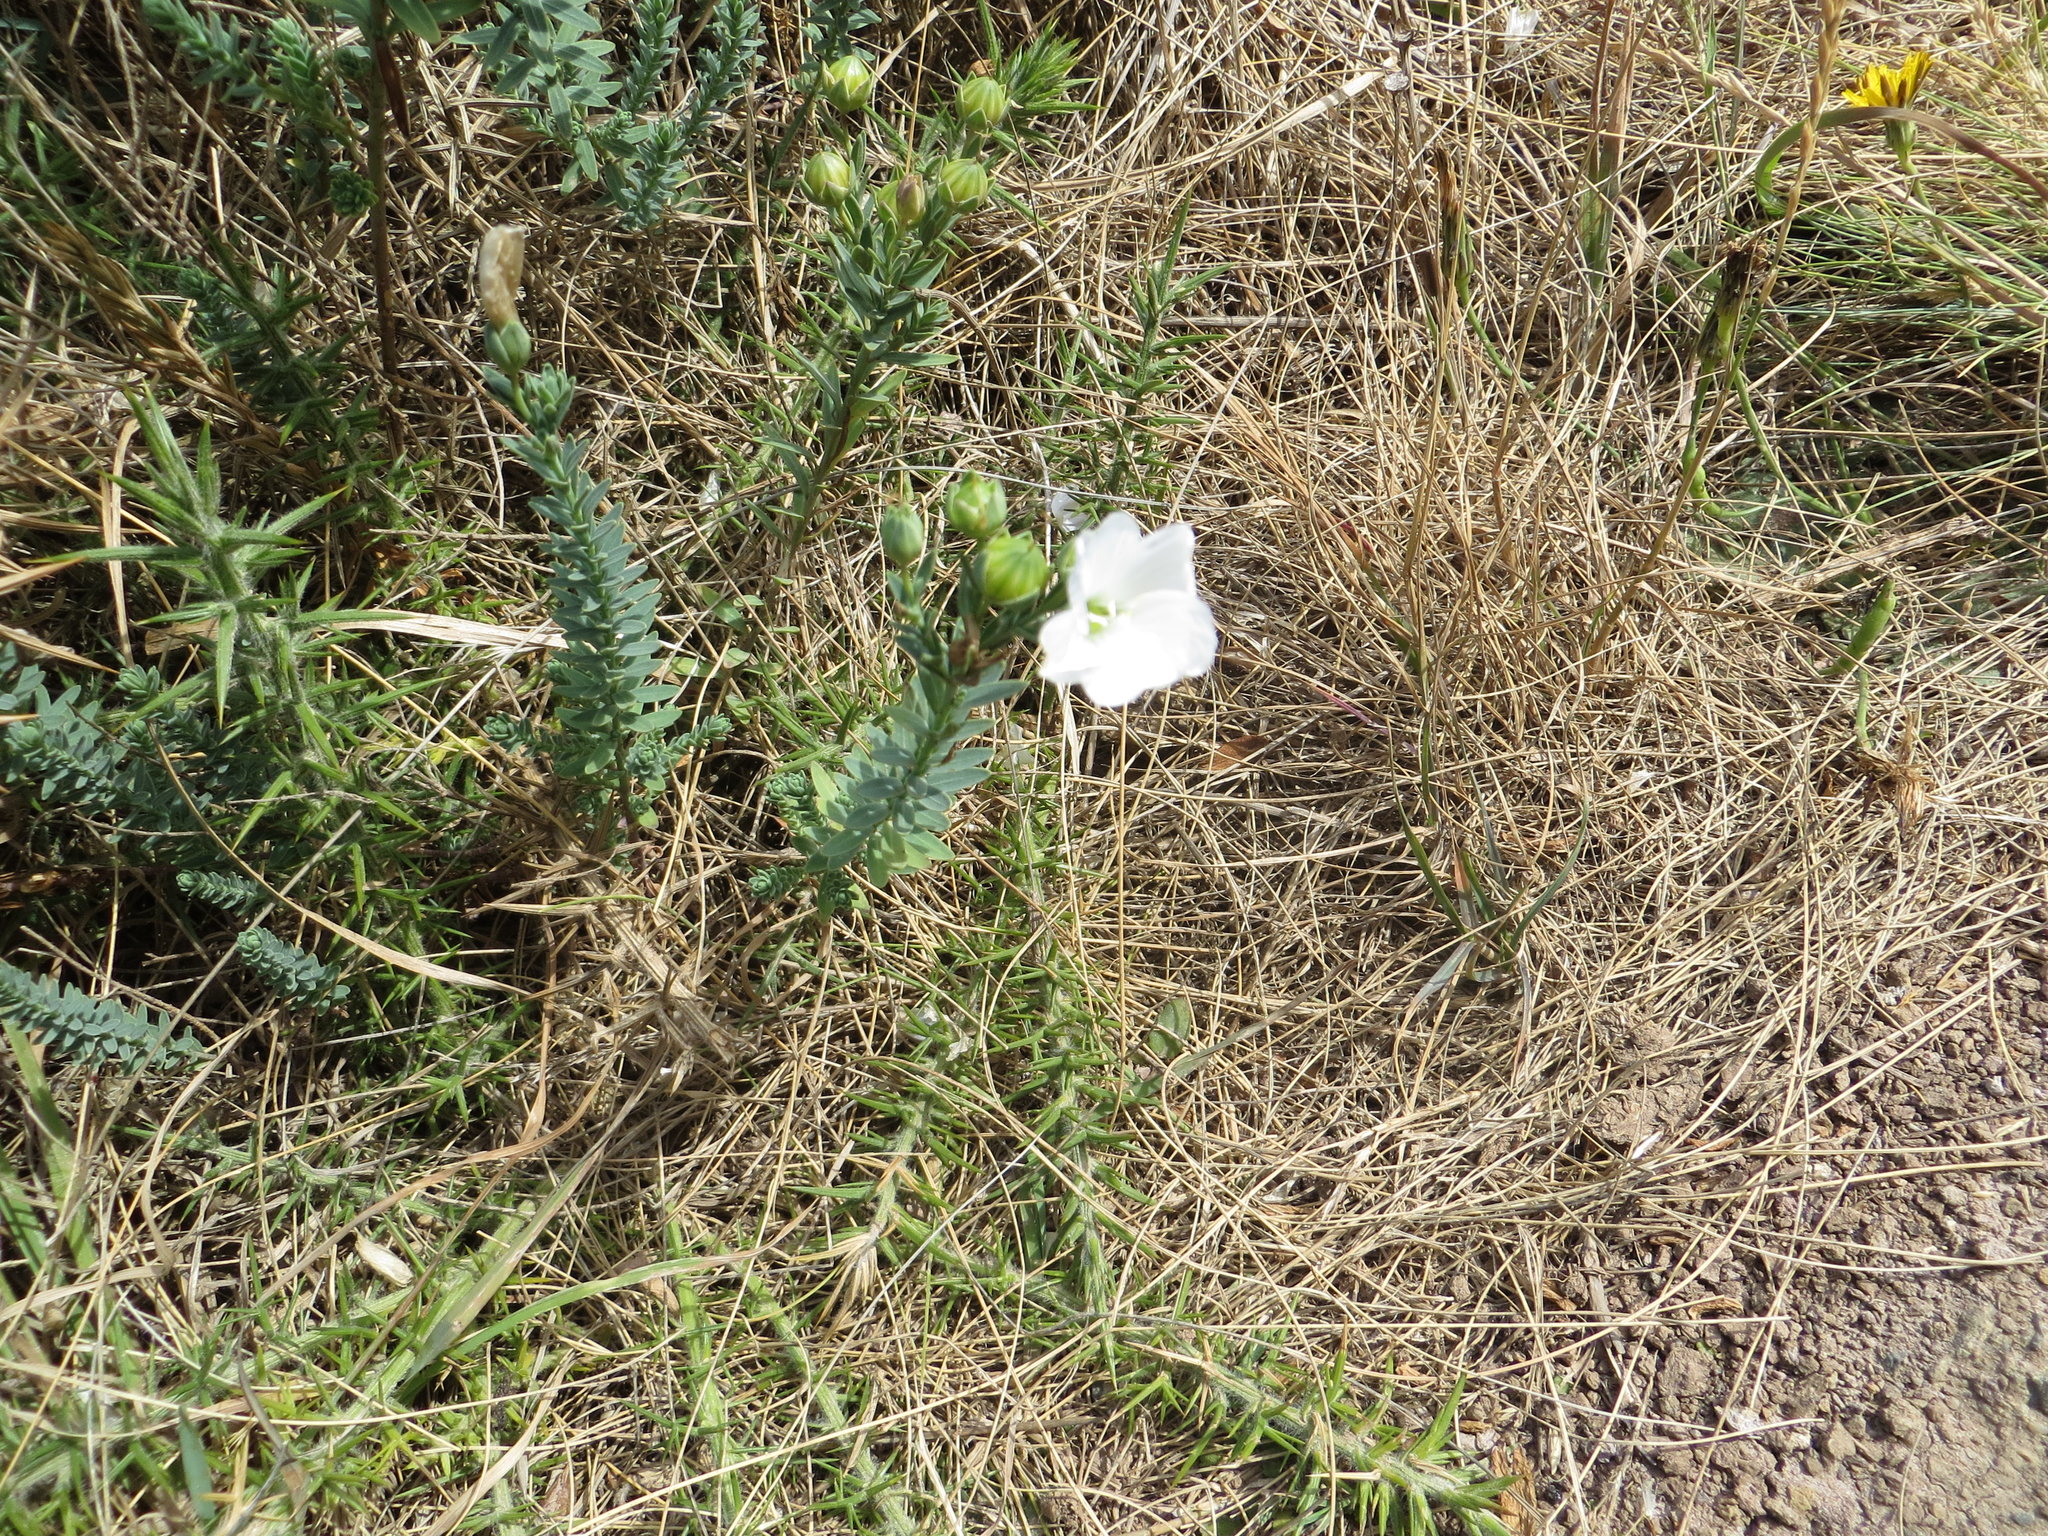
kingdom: Plantae
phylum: Tracheophyta
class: Magnoliopsida
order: Malpighiales
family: Linaceae
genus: Linum
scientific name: Linum monogynum
